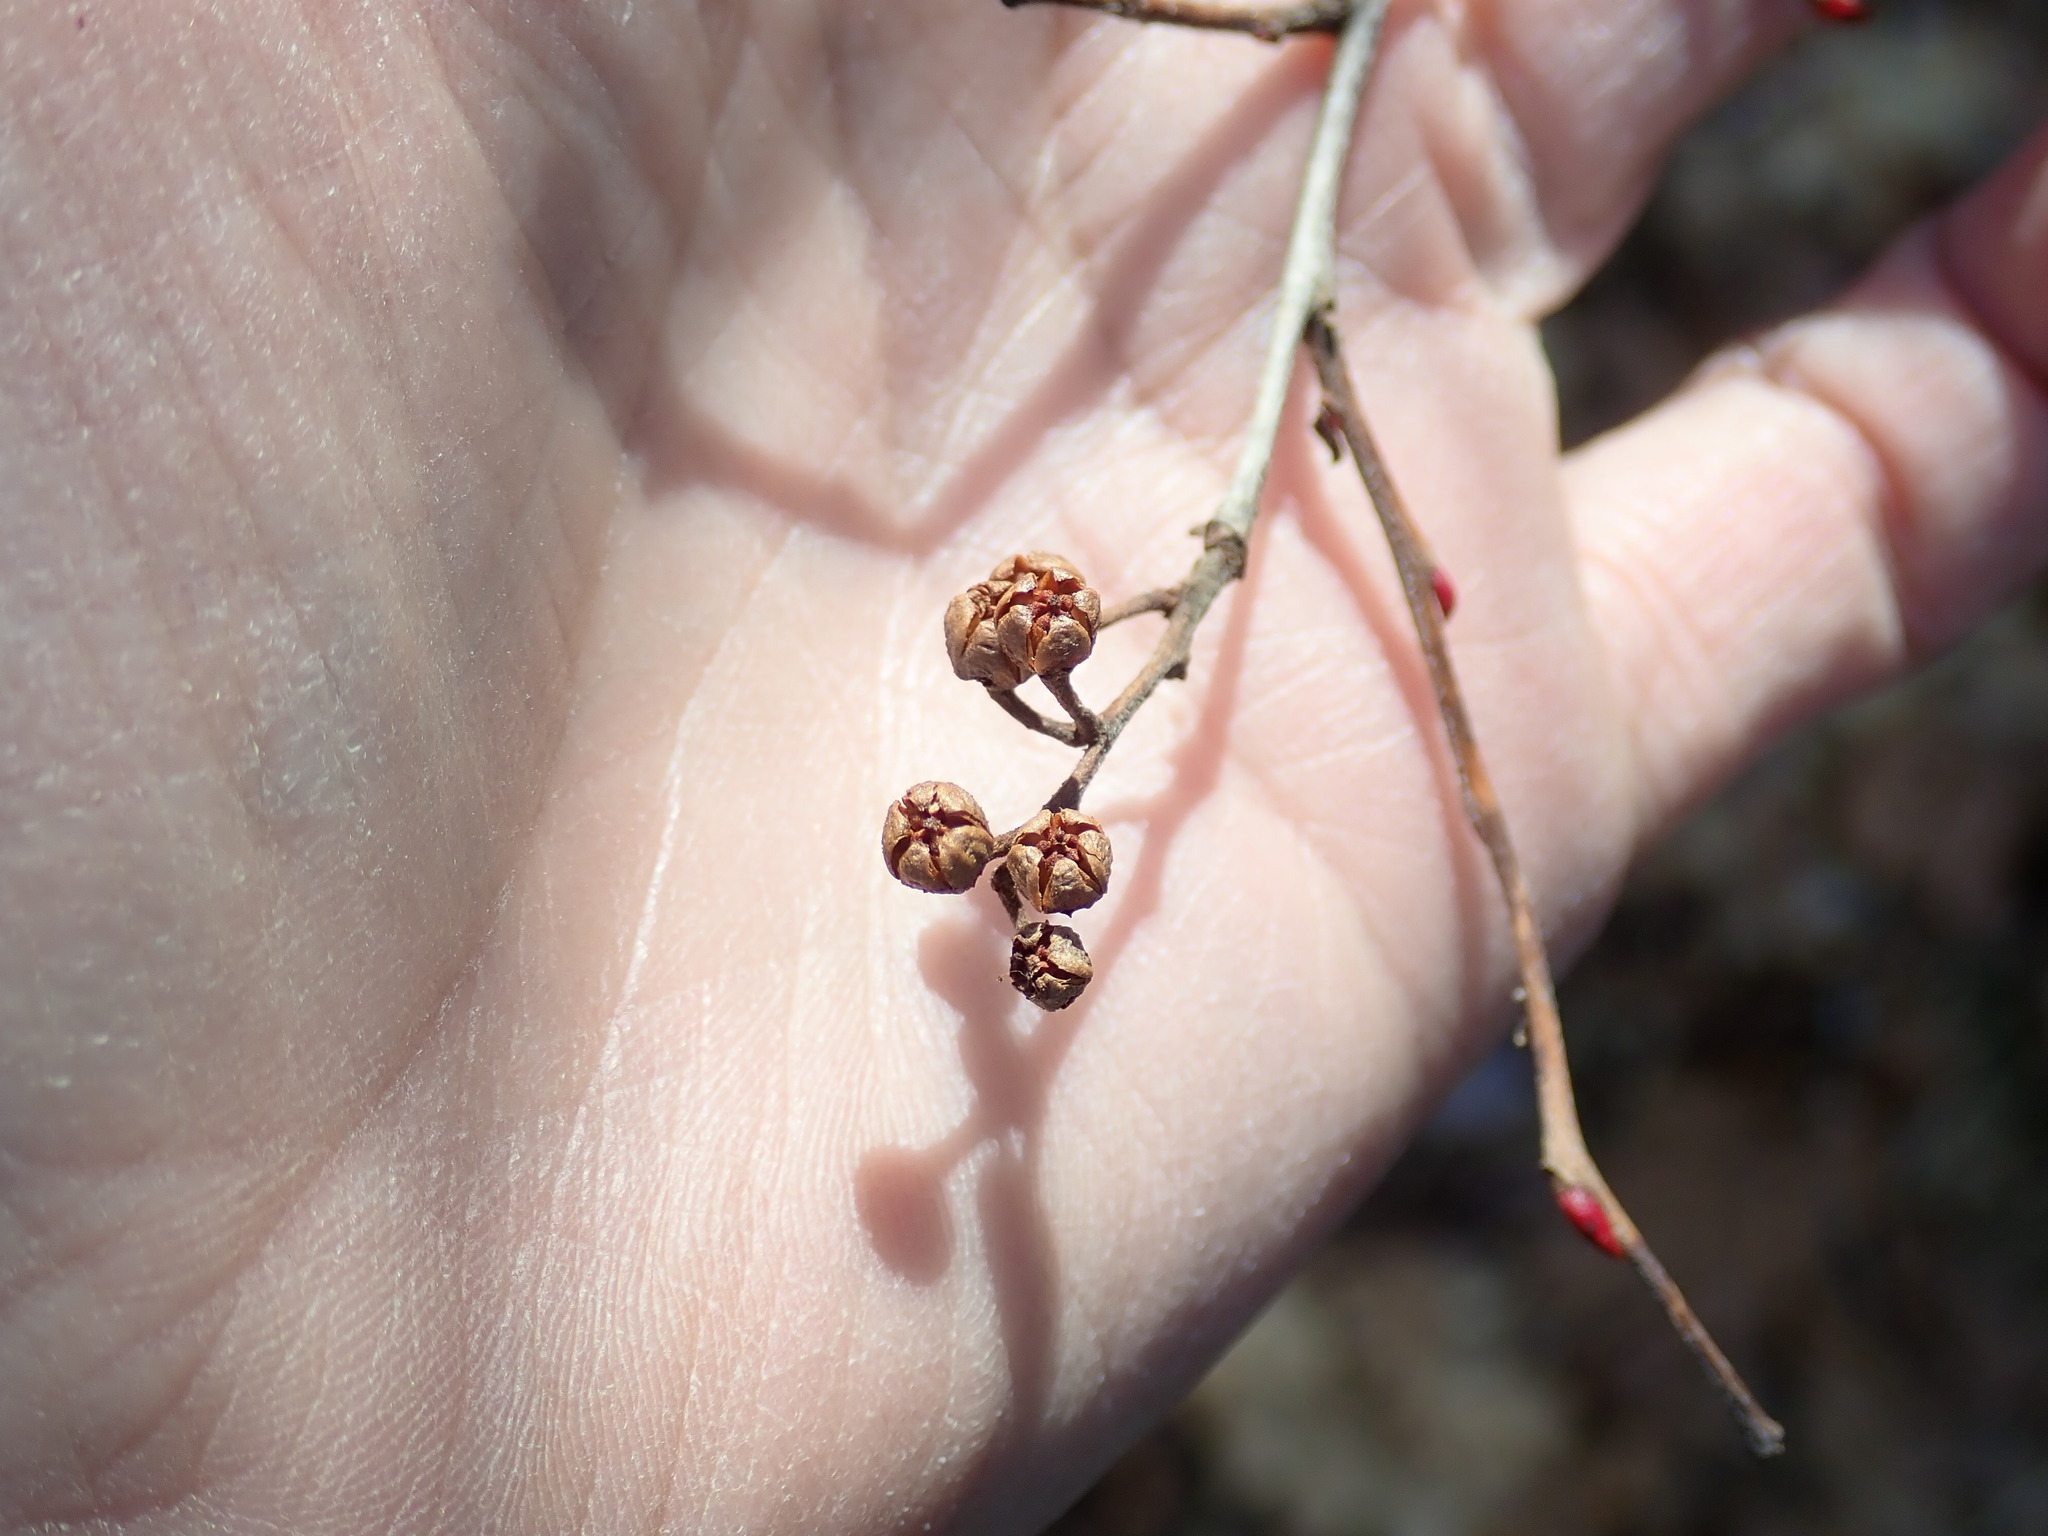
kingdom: Plantae
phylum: Tracheophyta
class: Magnoliopsida
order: Ericales
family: Ericaceae
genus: Lyonia
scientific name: Lyonia ligustrina
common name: Maleberry
